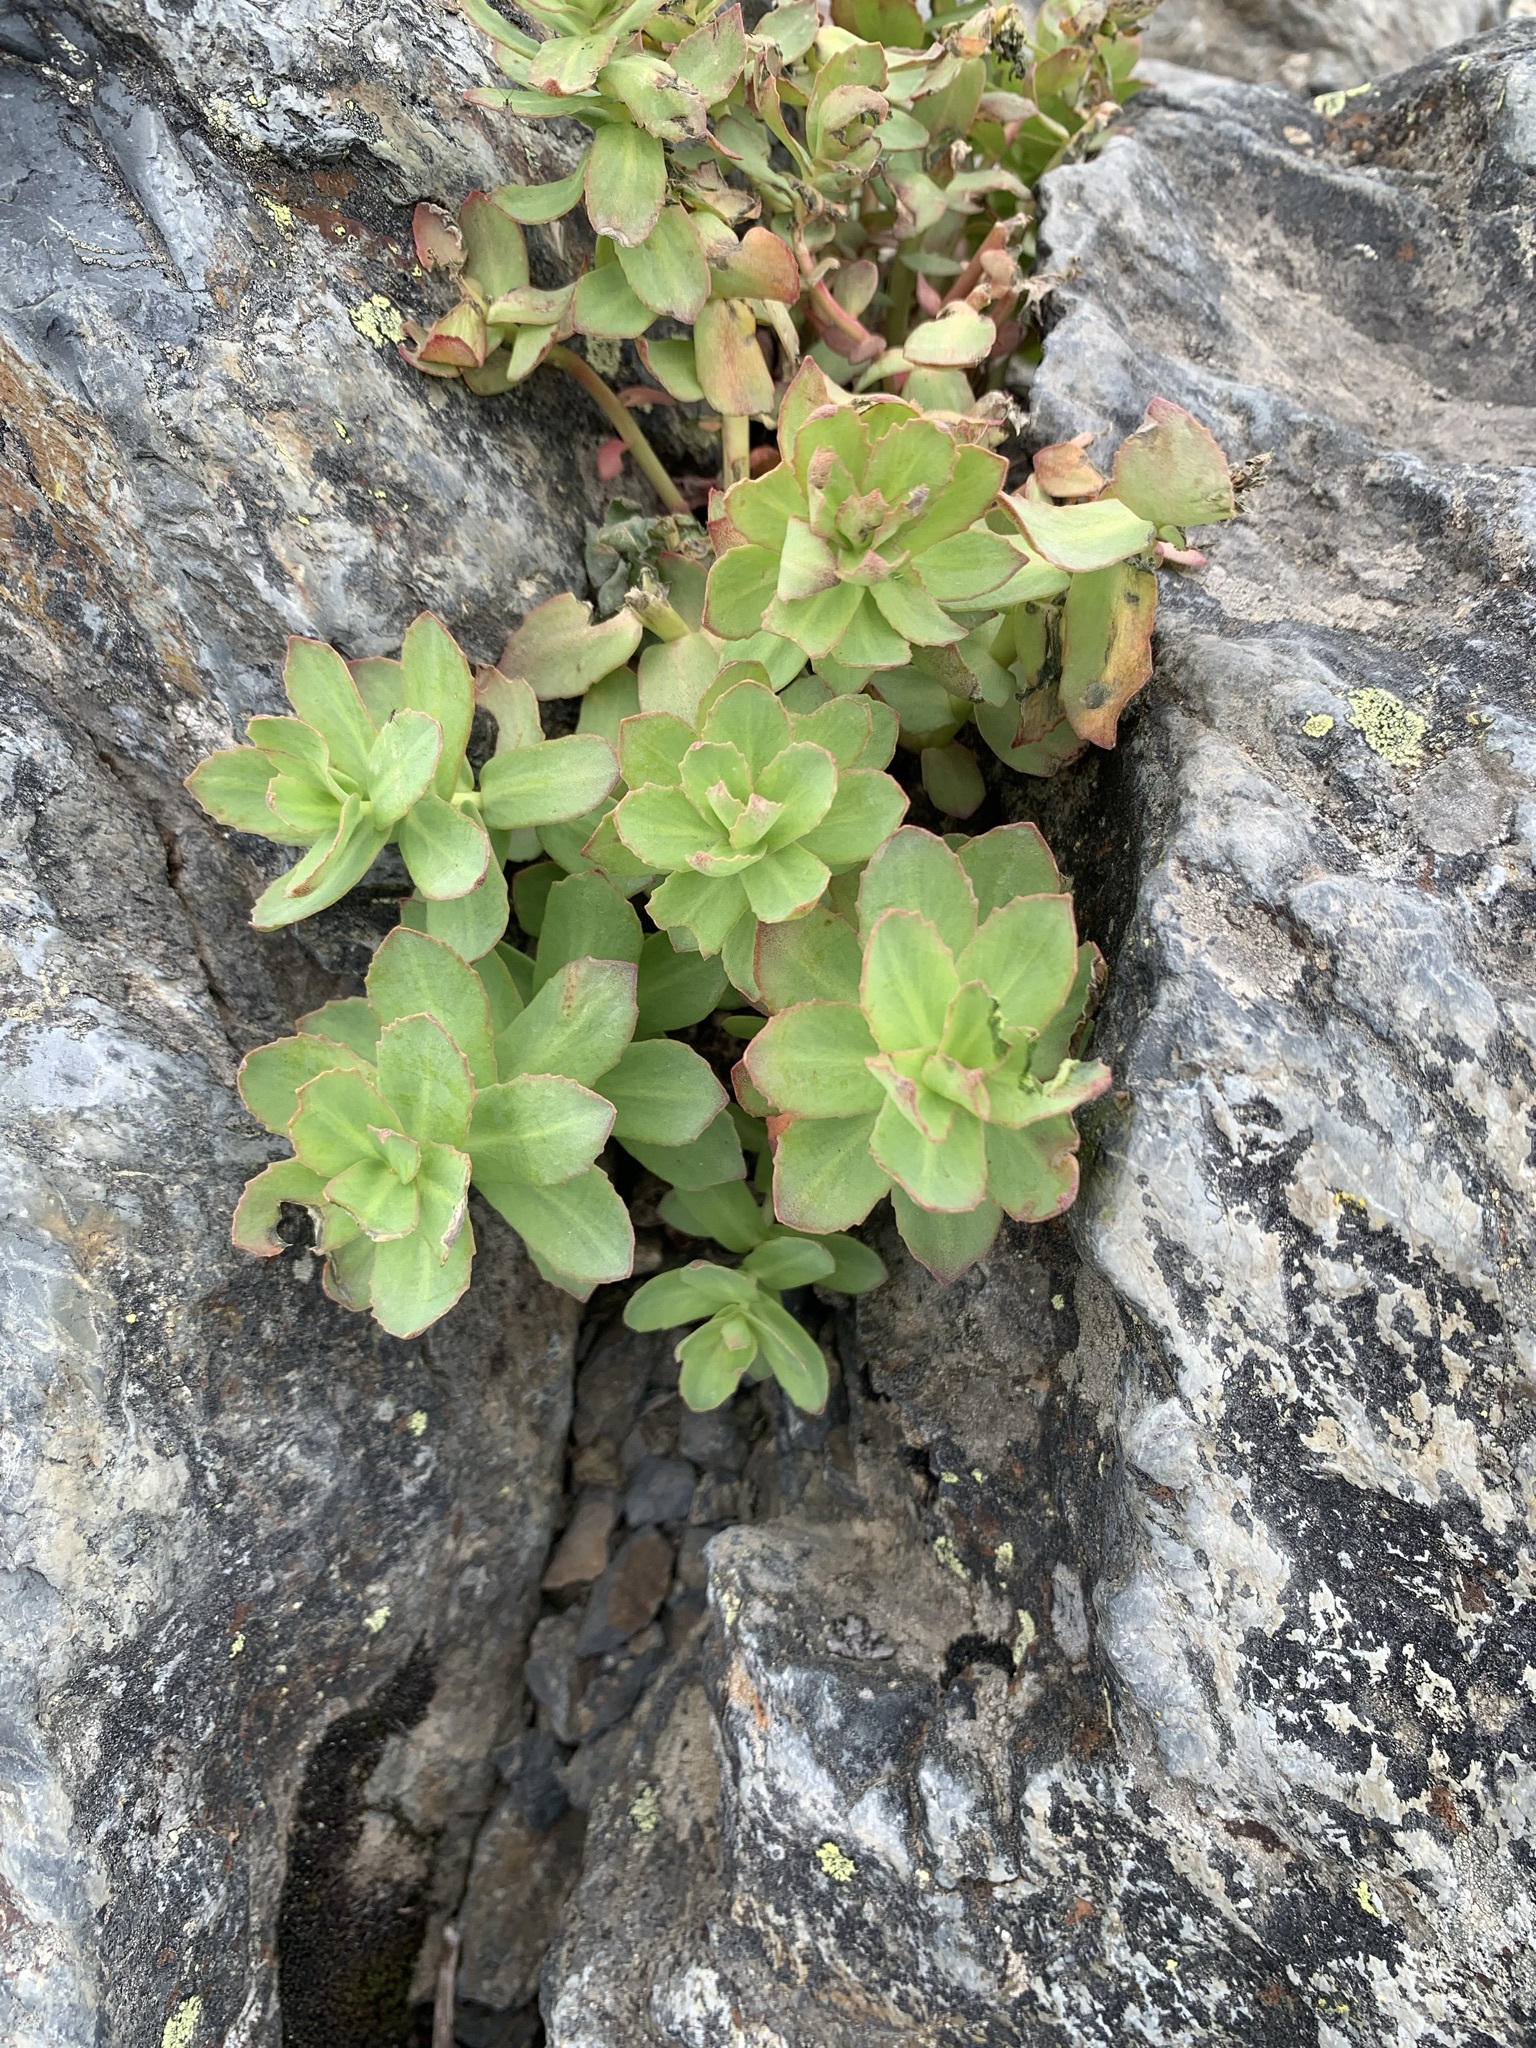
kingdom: Plantae
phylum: Tracheophyta
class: Magnoliopsida
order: Saxifragales
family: Crassulaceae
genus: Rhodiola
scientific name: Rhodiola rosea
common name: Roseroot
